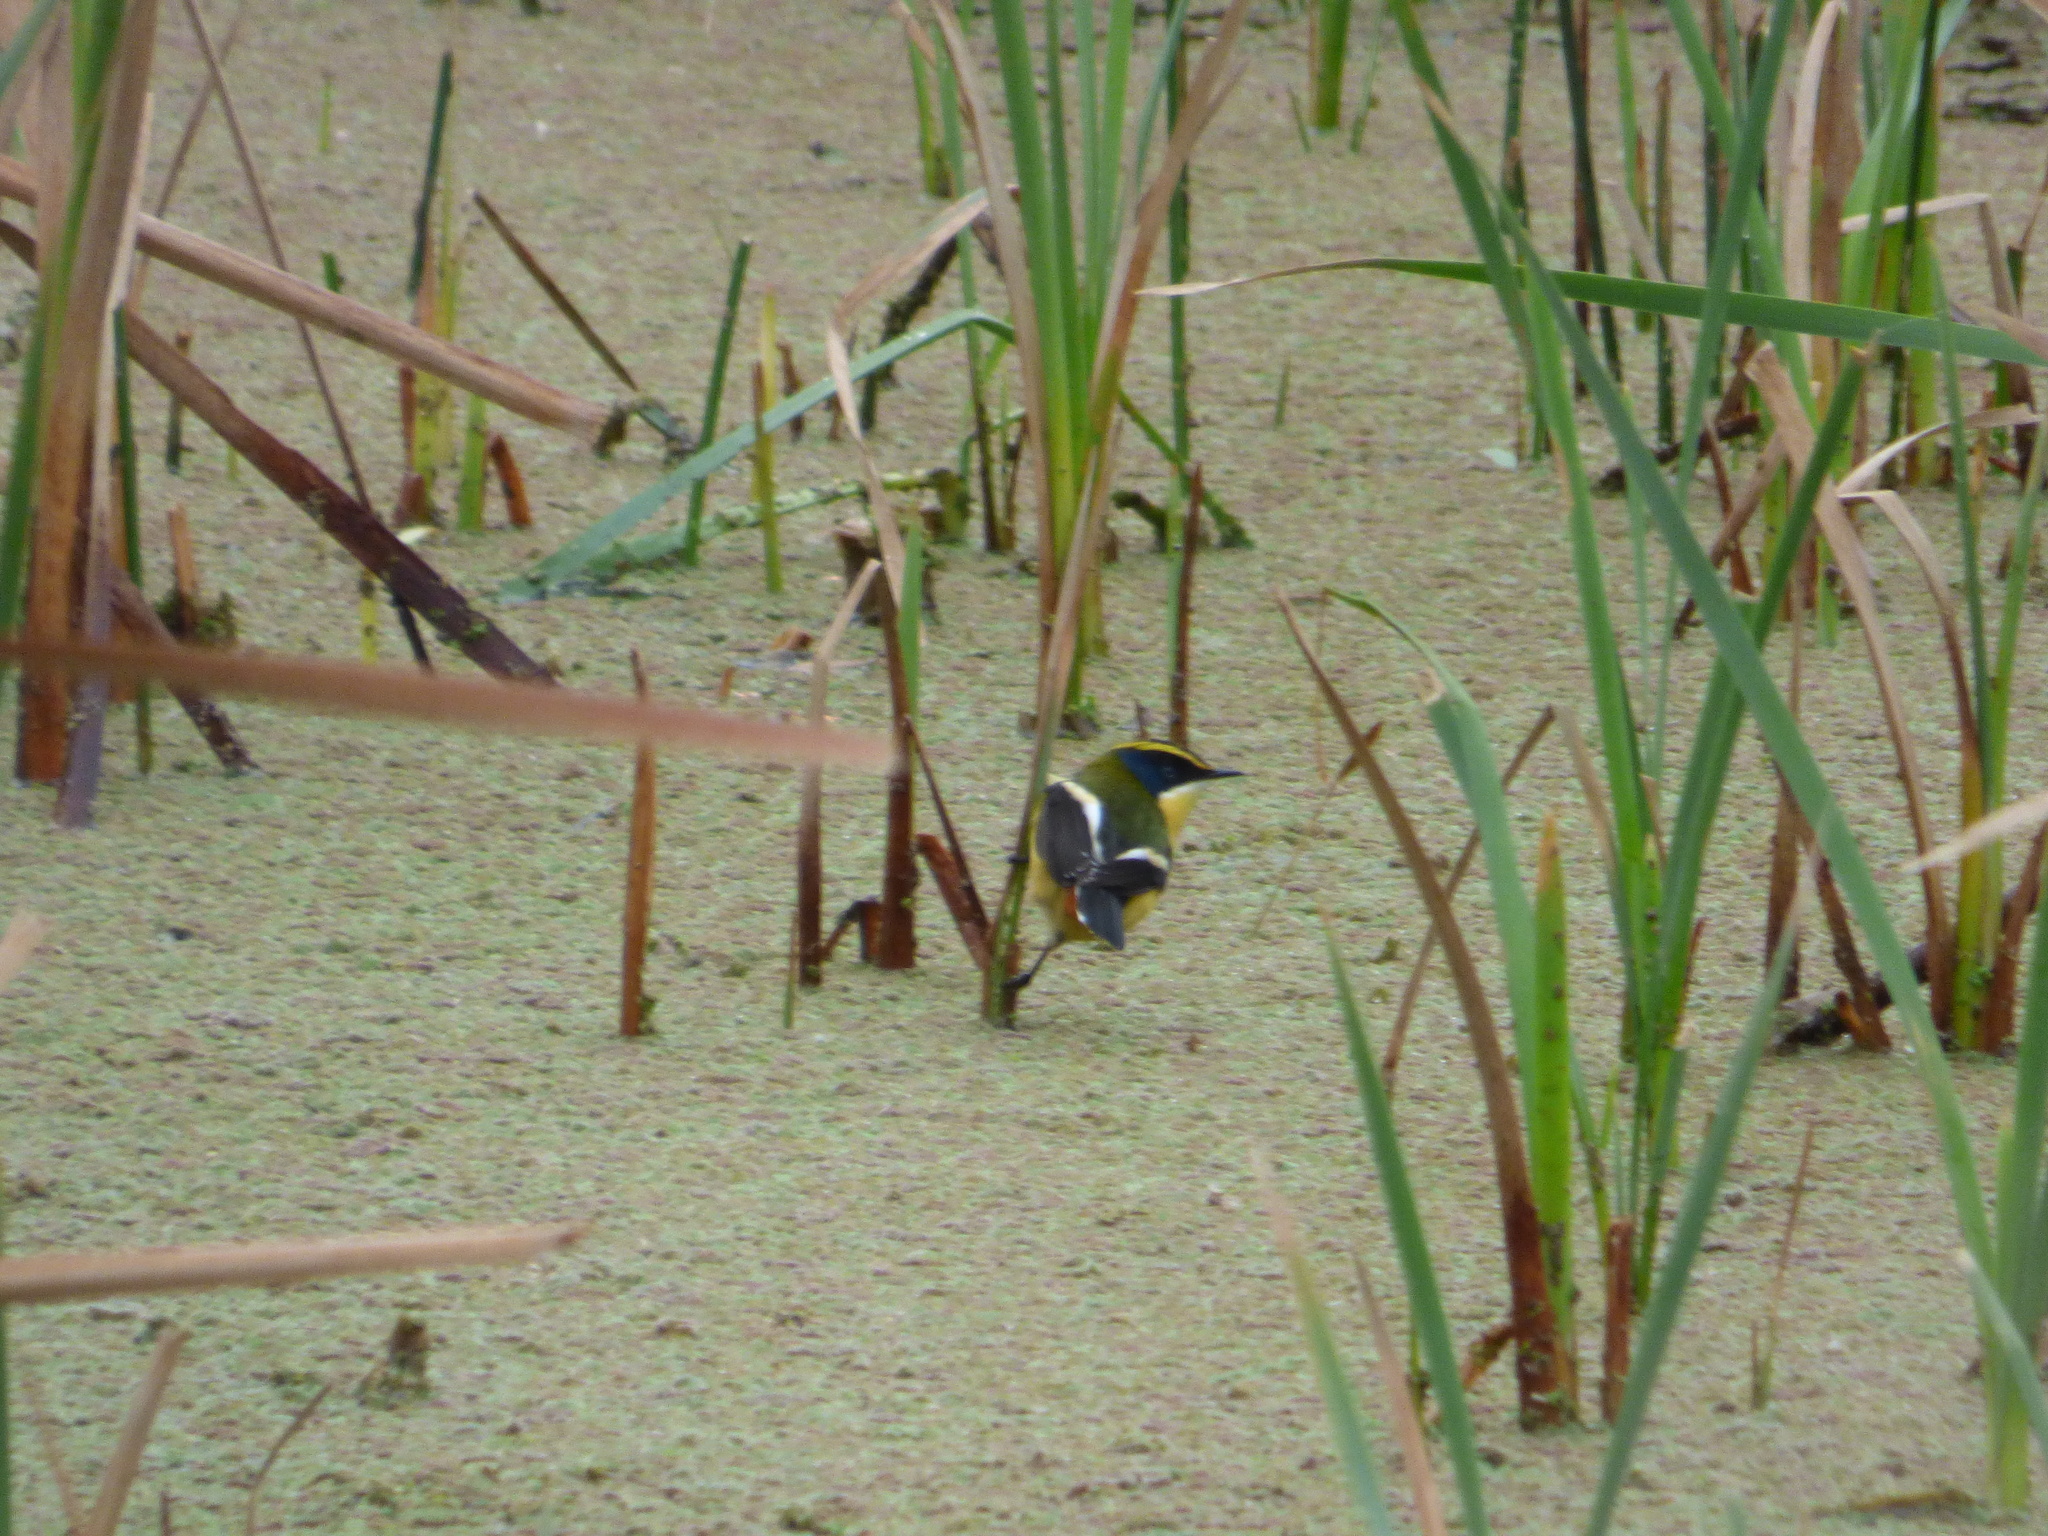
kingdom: Animalia
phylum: Chordata
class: Aves
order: Passeriformes
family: Tyrannidae
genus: Tachuris
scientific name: Tachuris rubrigastra
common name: Many-colored rush tyrant
